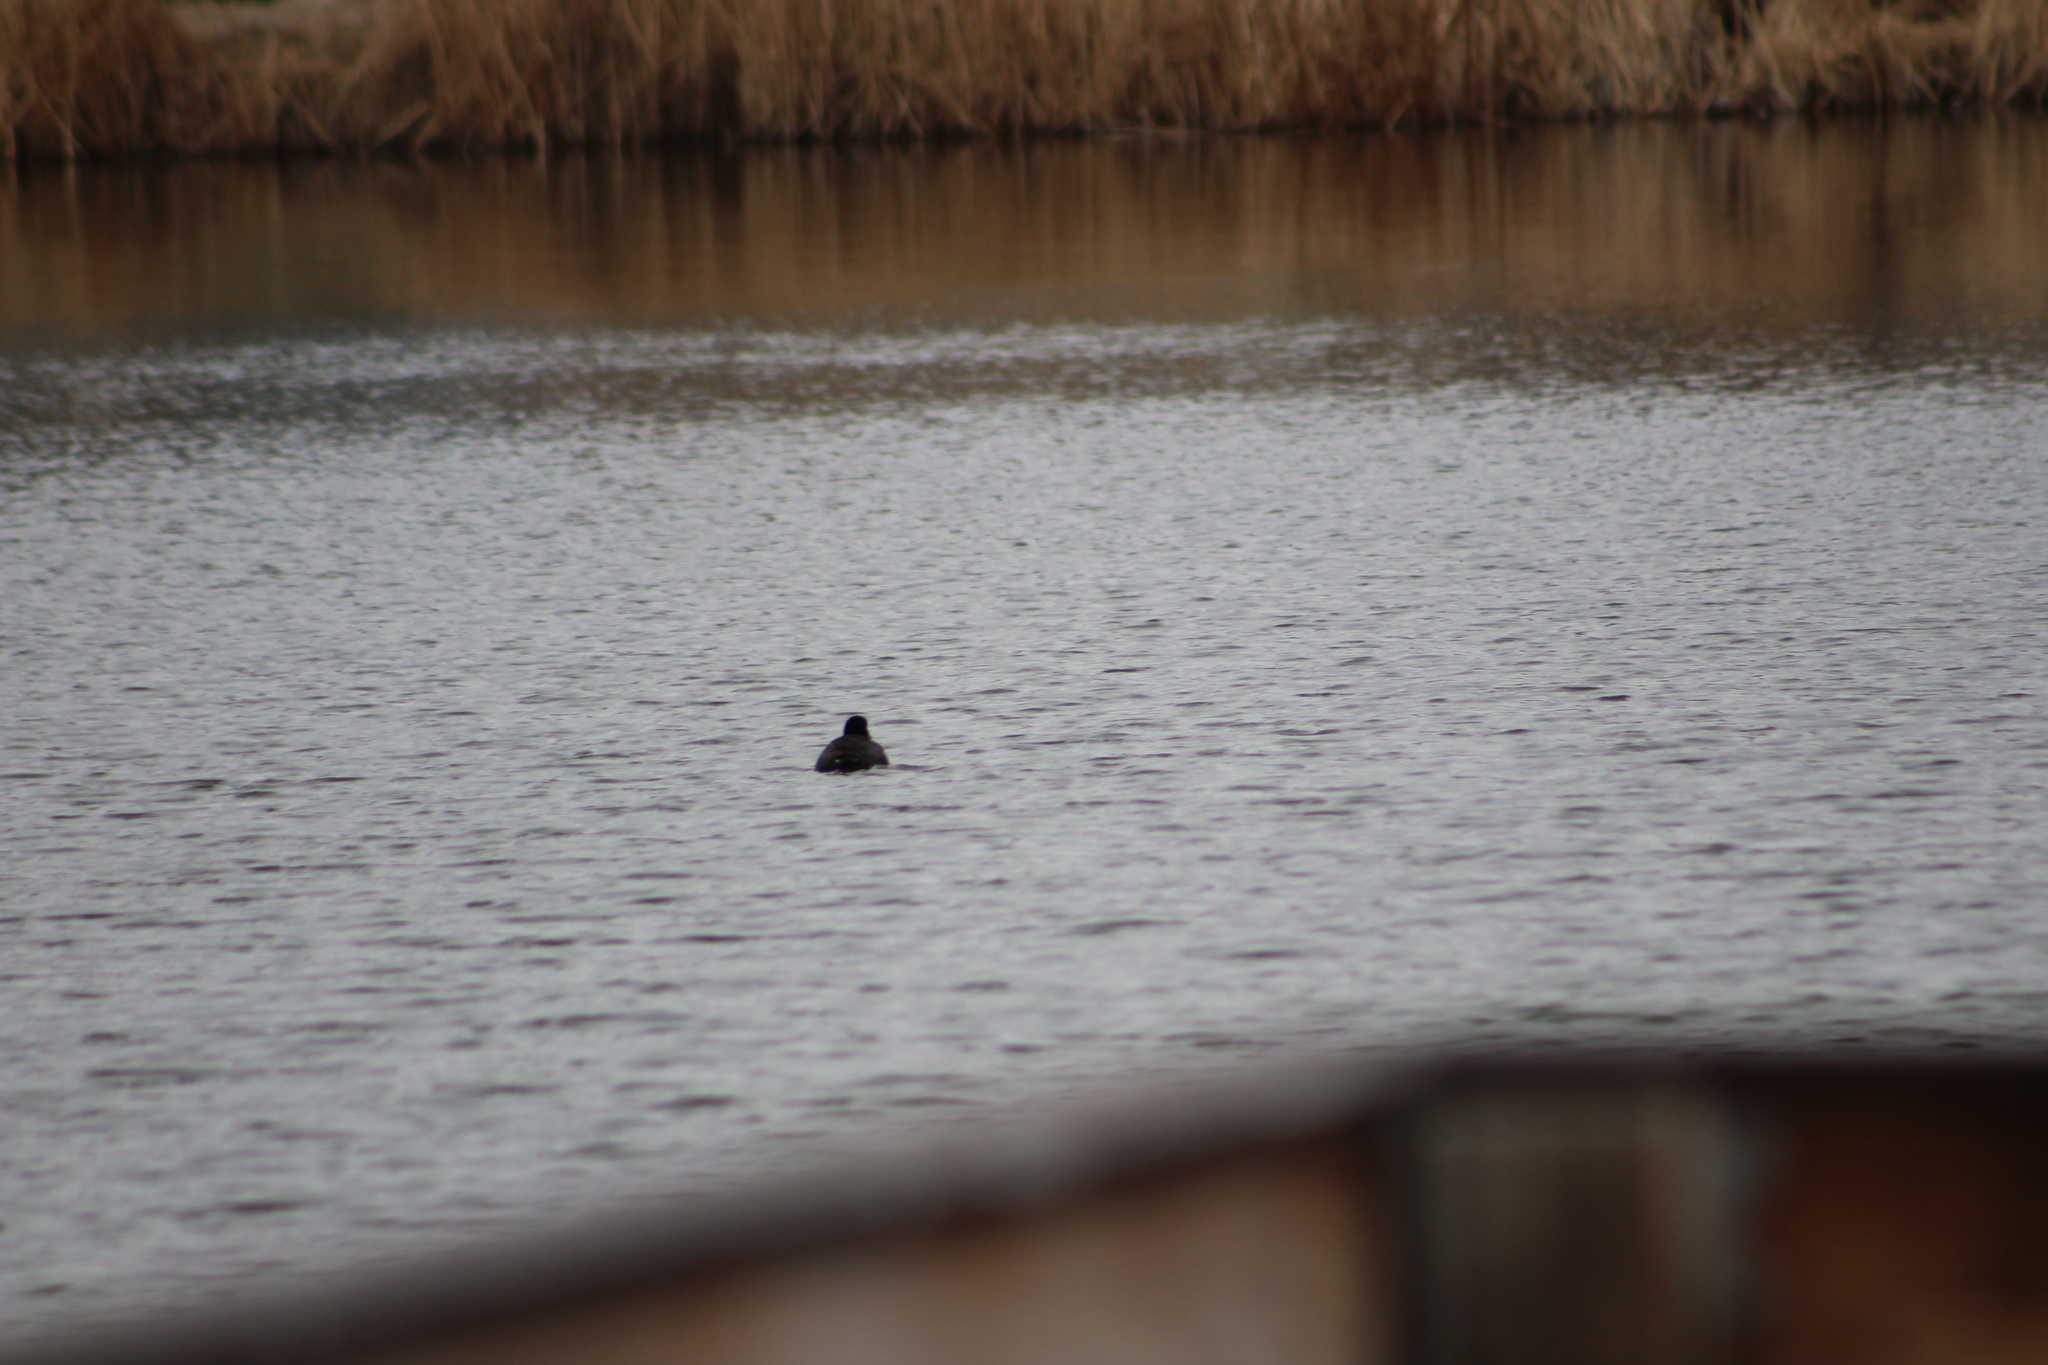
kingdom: Animalia
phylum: Chordata
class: Aves
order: Gruiformes
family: Rallidae
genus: Fulica
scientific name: Fulica americana
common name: American coot
